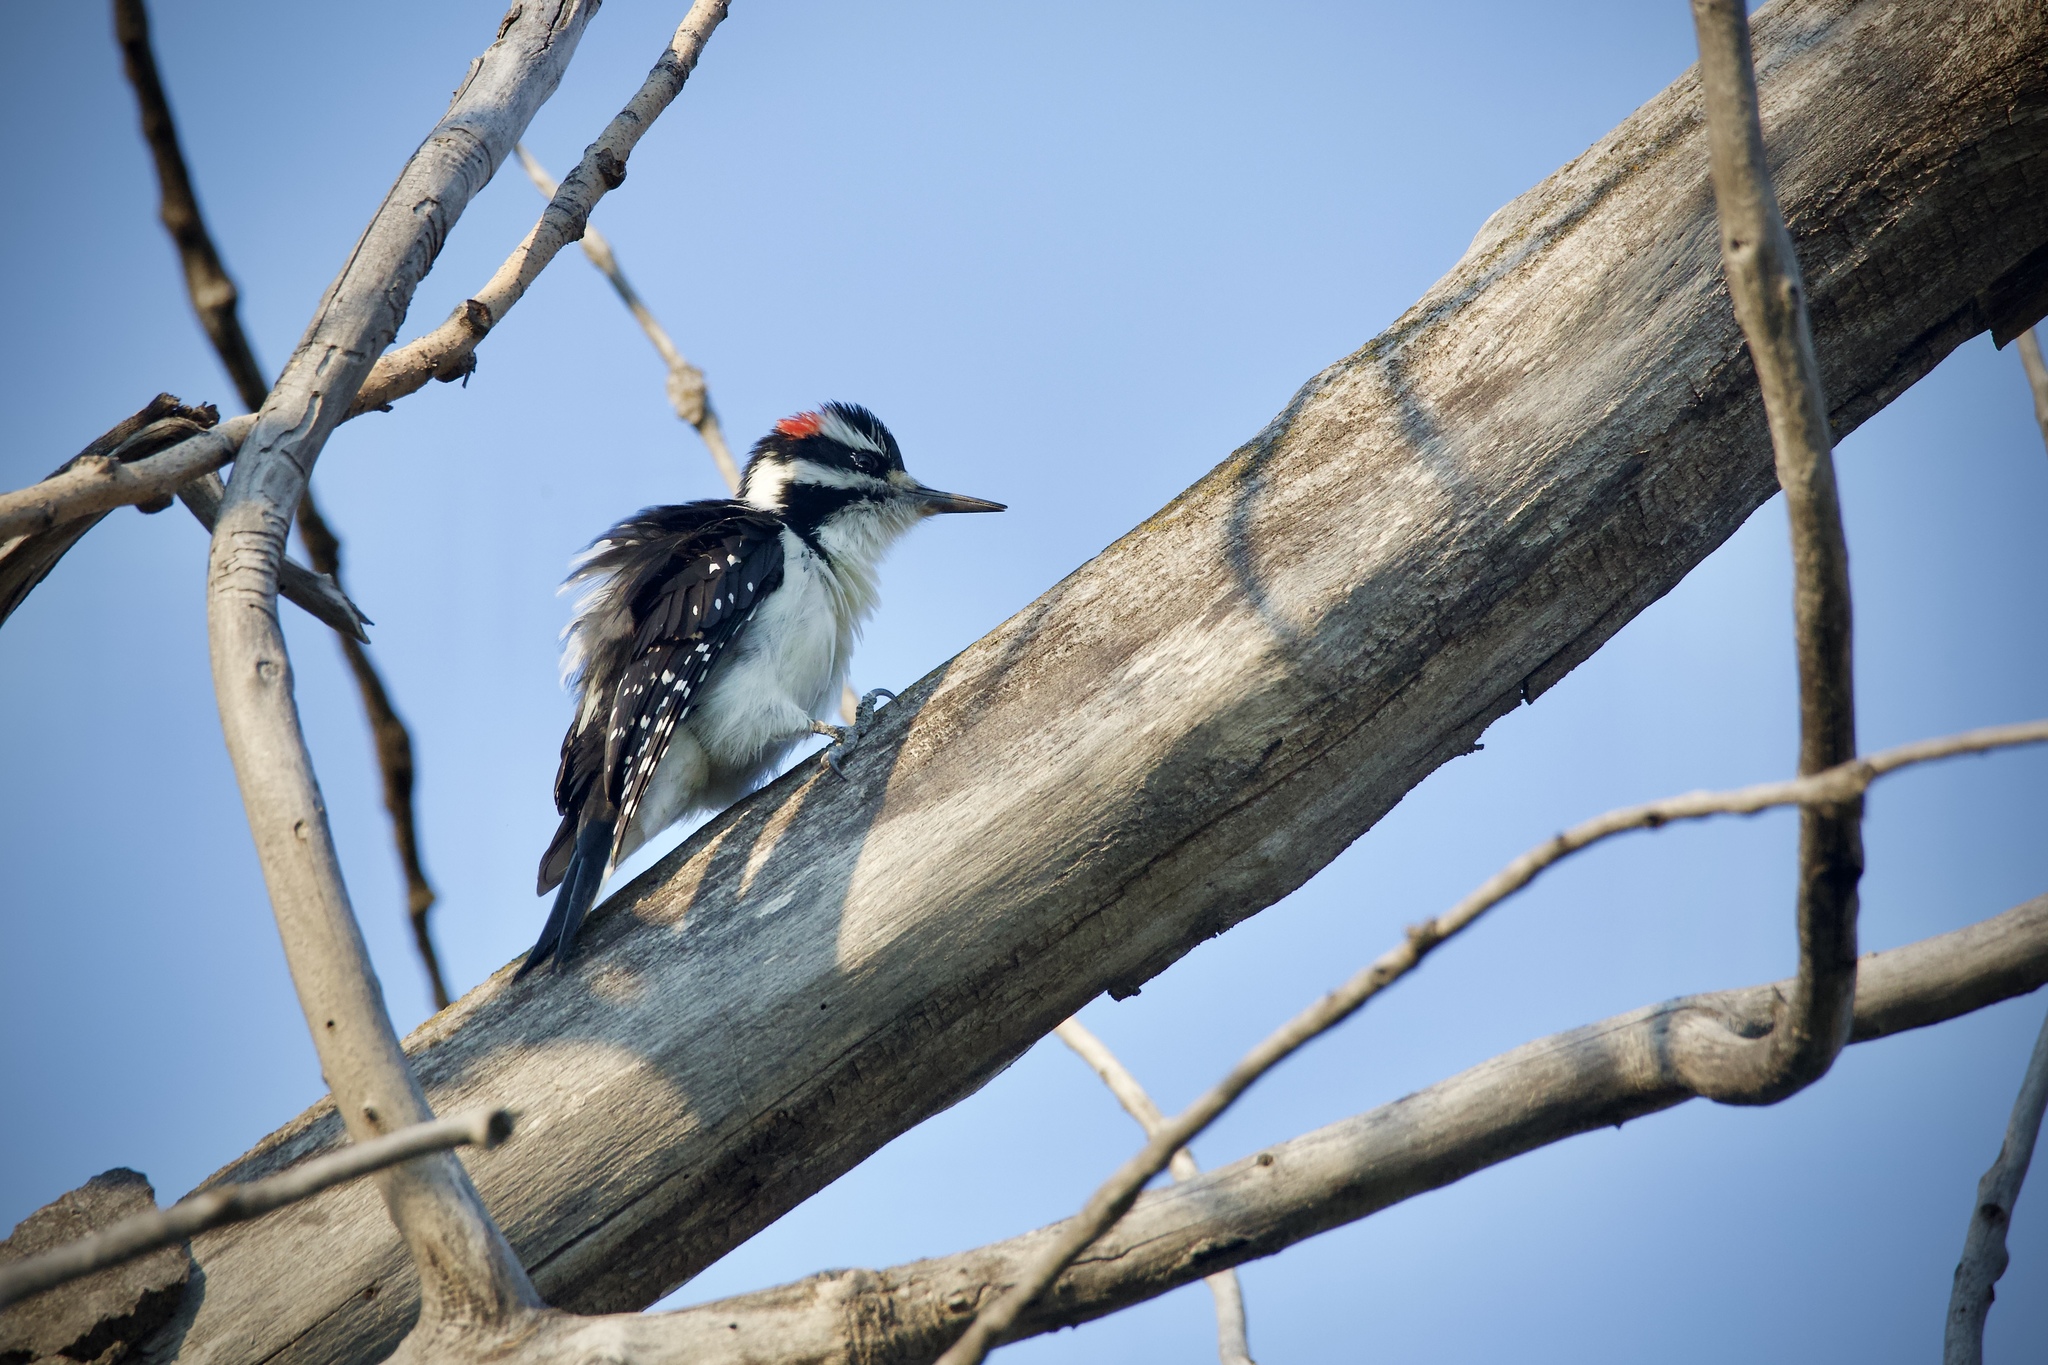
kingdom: Animalia
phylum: Chordata
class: Aves
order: Piciformes
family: Picidae
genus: Leuconotopicus
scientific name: Leuconotopicus villosus
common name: Hairy woodpecker
